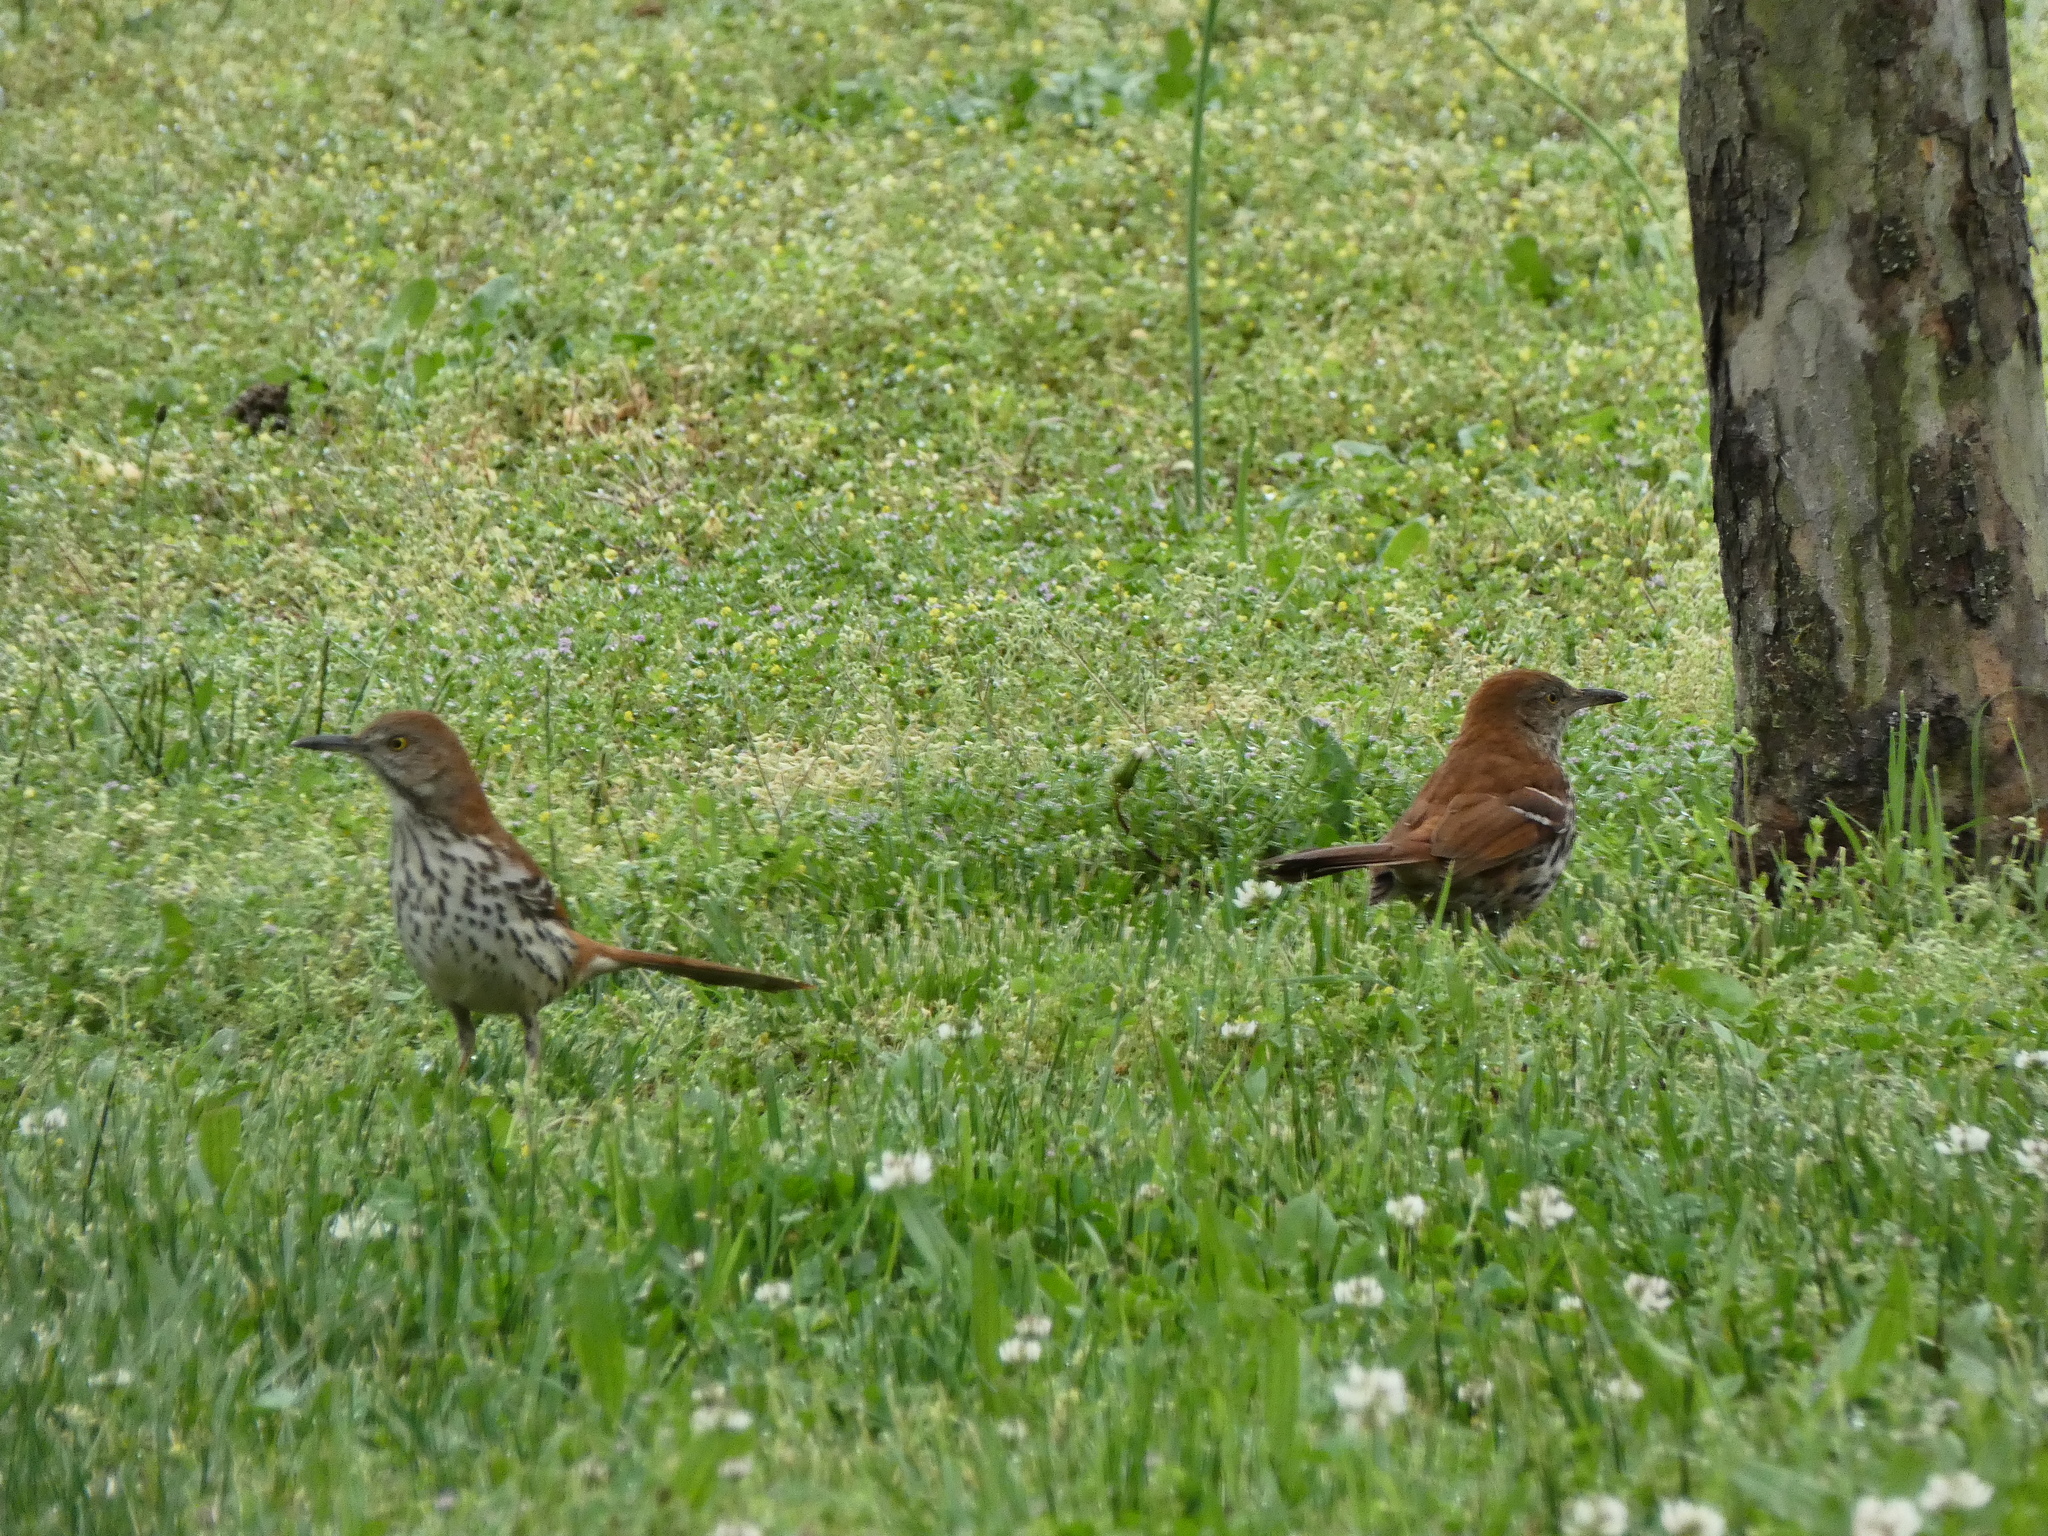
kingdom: Animalia
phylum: Chordata
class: Aves
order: Passeriformes
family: Mimidae
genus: Toxostoma
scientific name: Toxostoma rufum
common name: Brown thrasher
